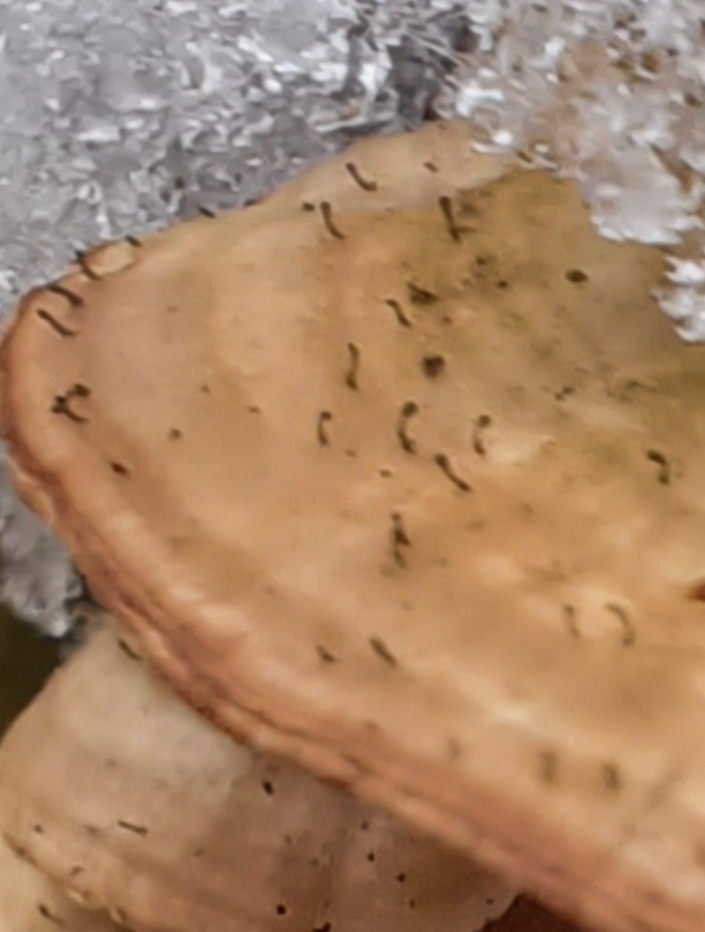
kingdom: Fungi
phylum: Ascomycota
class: Eurotiomycetes
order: Mycocaliciales
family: Mycocaliciaceae
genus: Phaeocalicium
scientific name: Phaeocalicium polyporaeum
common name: Fairy pins
